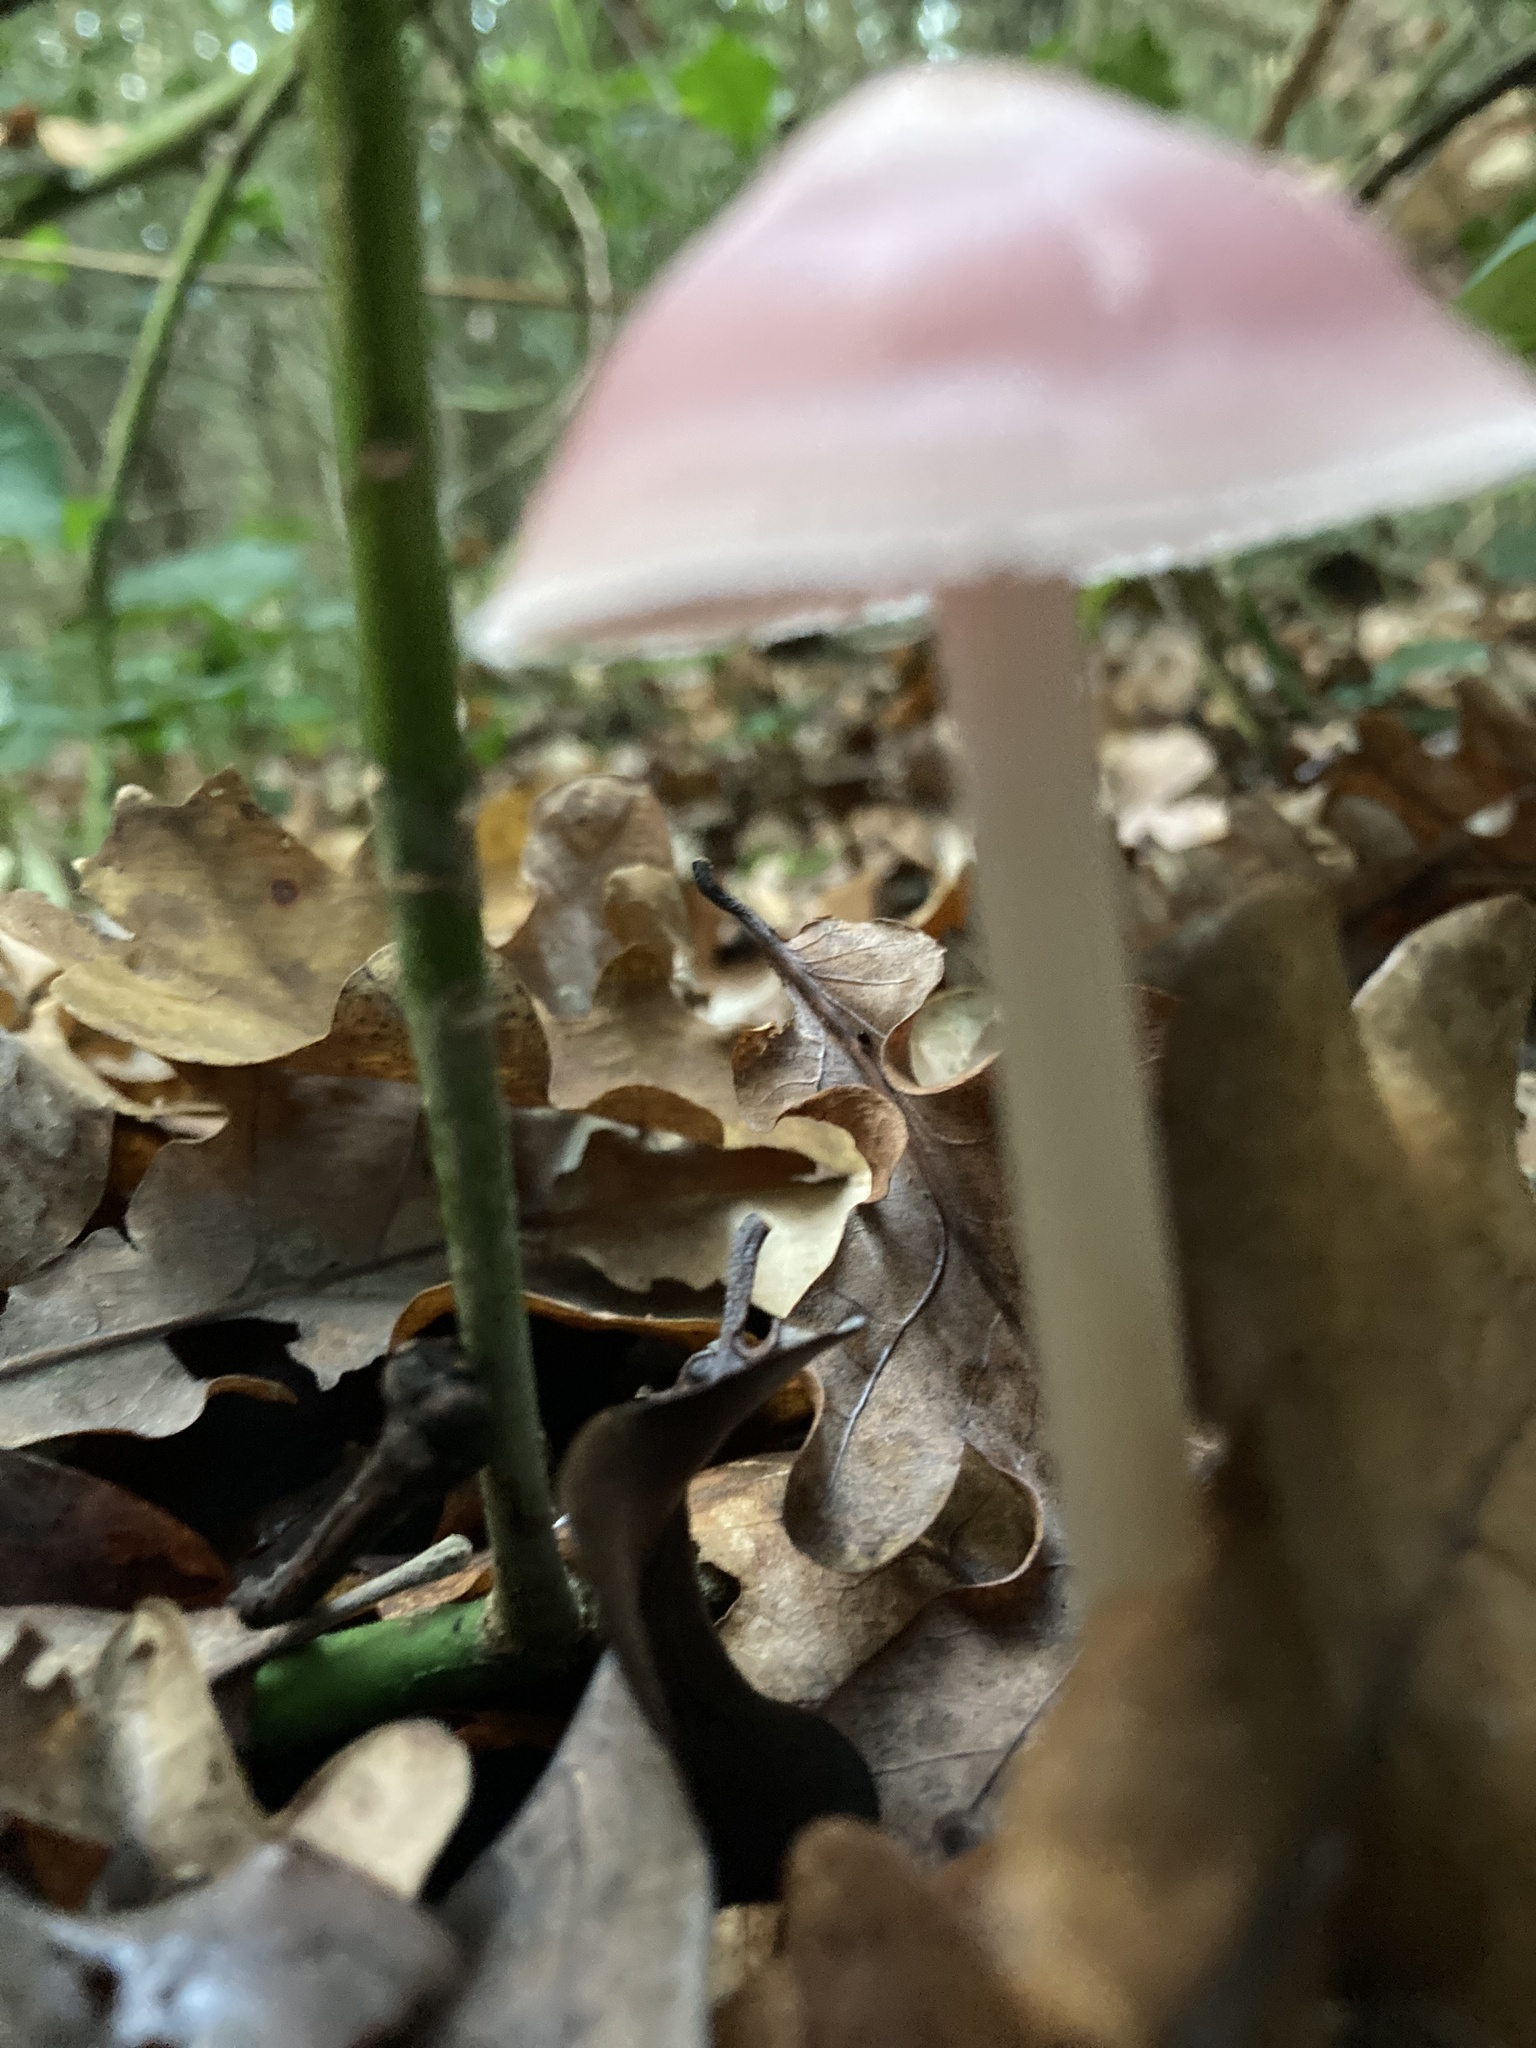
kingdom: Fungi
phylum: Basidiomycota
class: Agaricomycetes
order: Agaricales
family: Mycenaceae
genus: Mycena
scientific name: Mycena rosea
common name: Rosy bonnet
